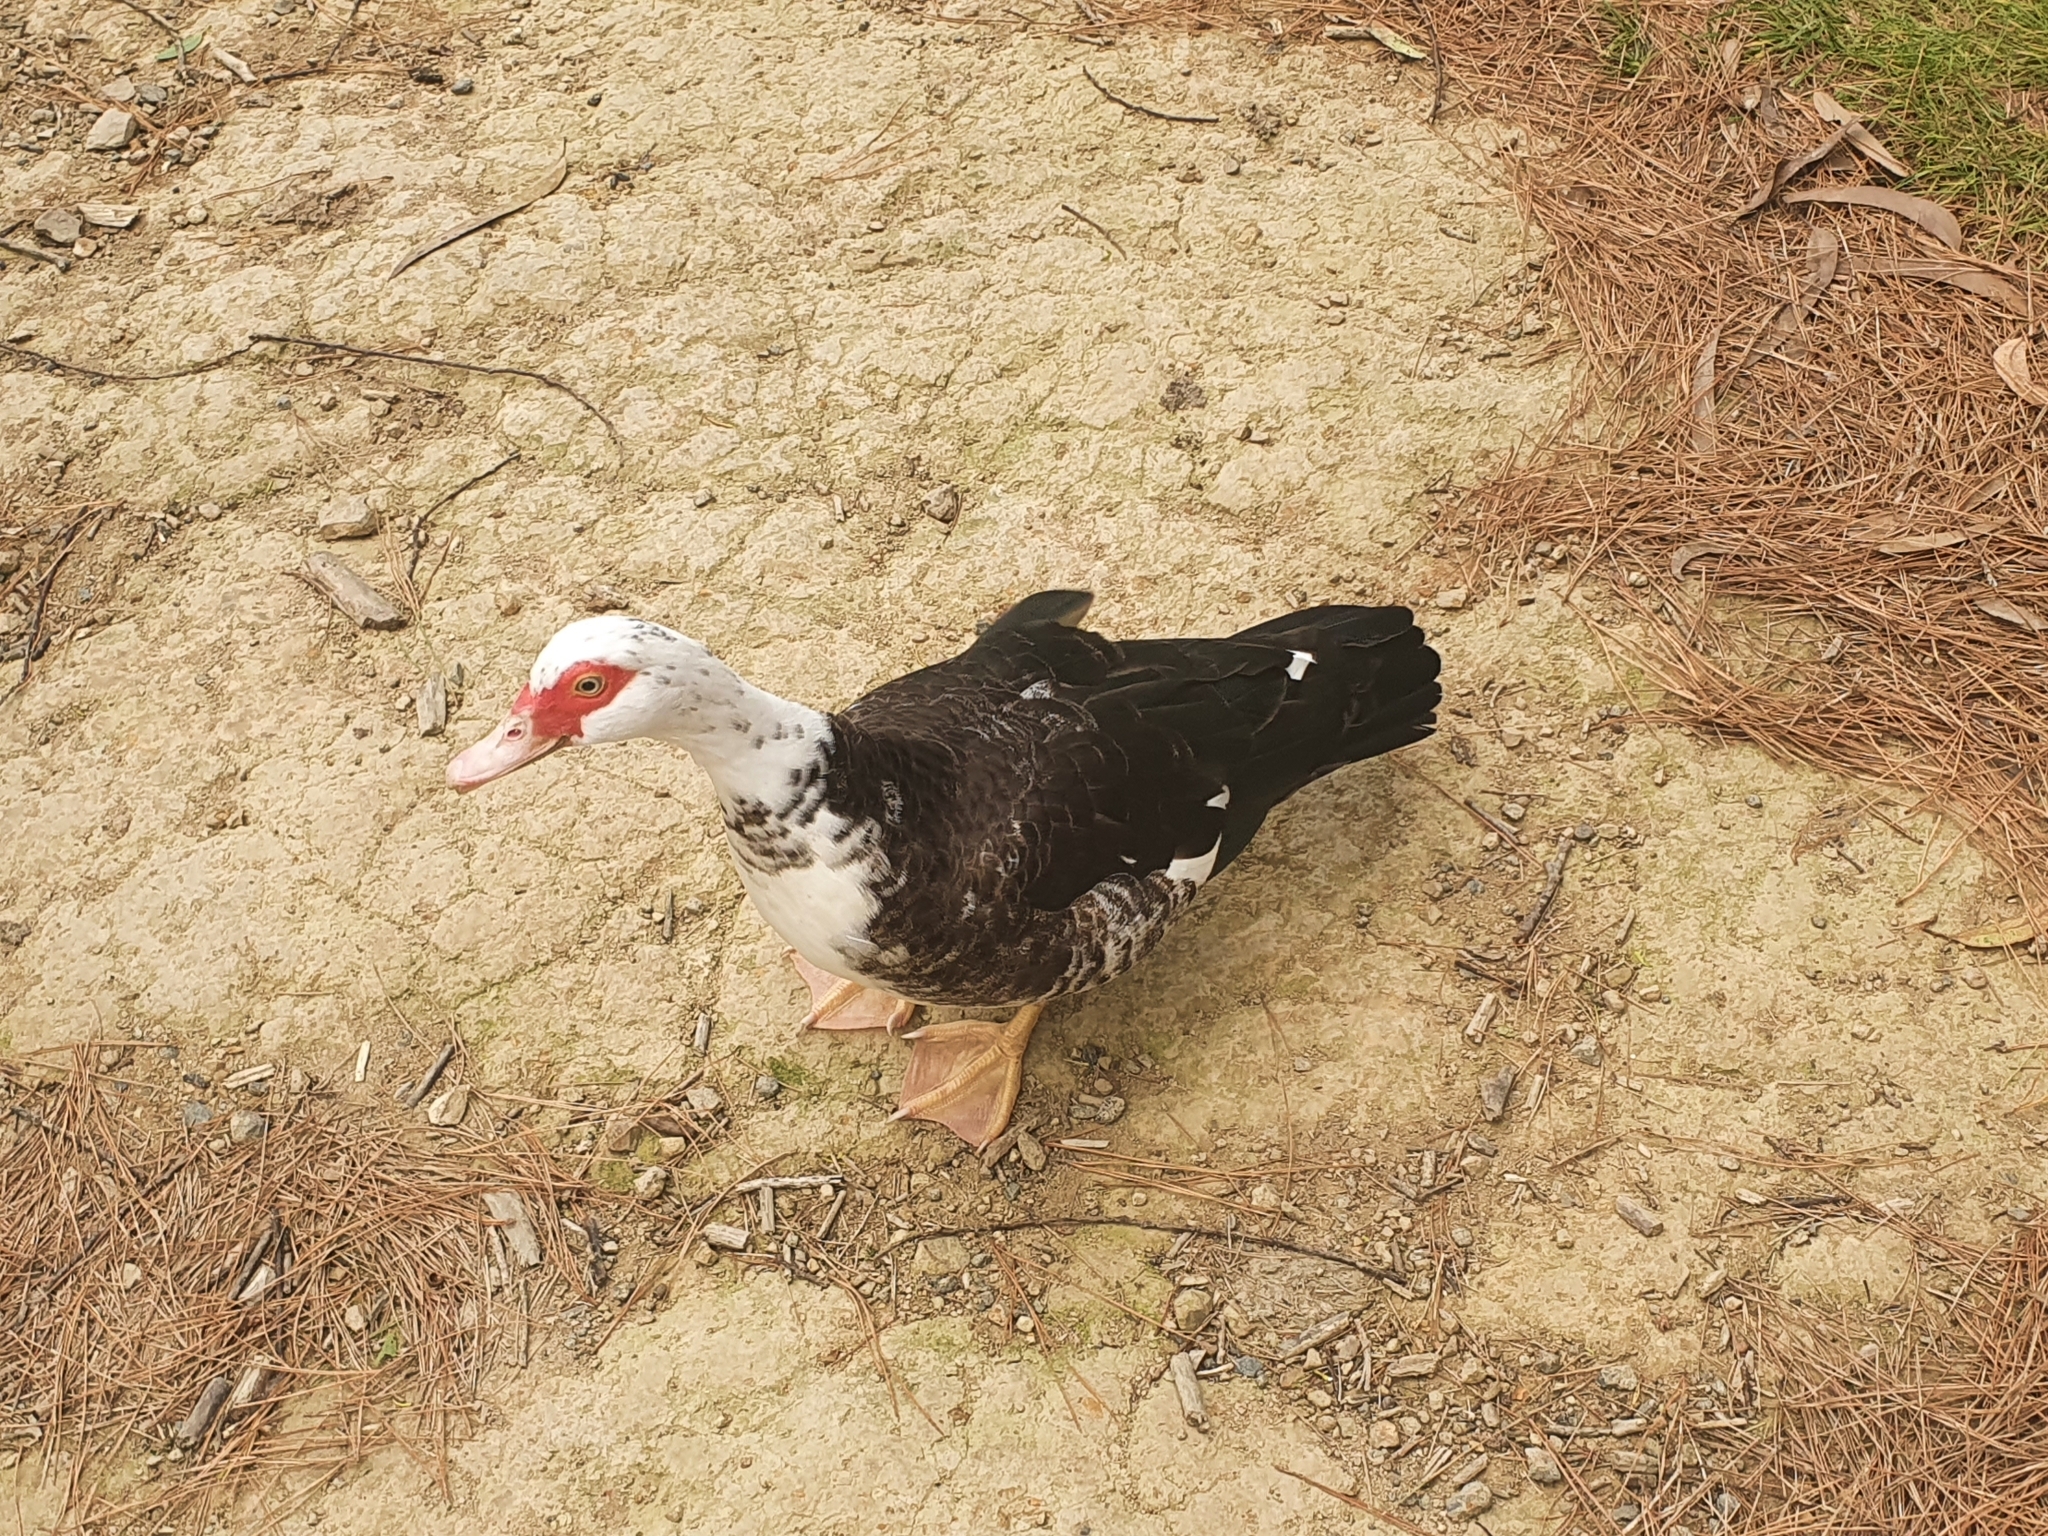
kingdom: Animalia
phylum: Chordata
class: Aves
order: Anseriformes
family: Anatidae
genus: Cairina
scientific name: Cairina moschata
